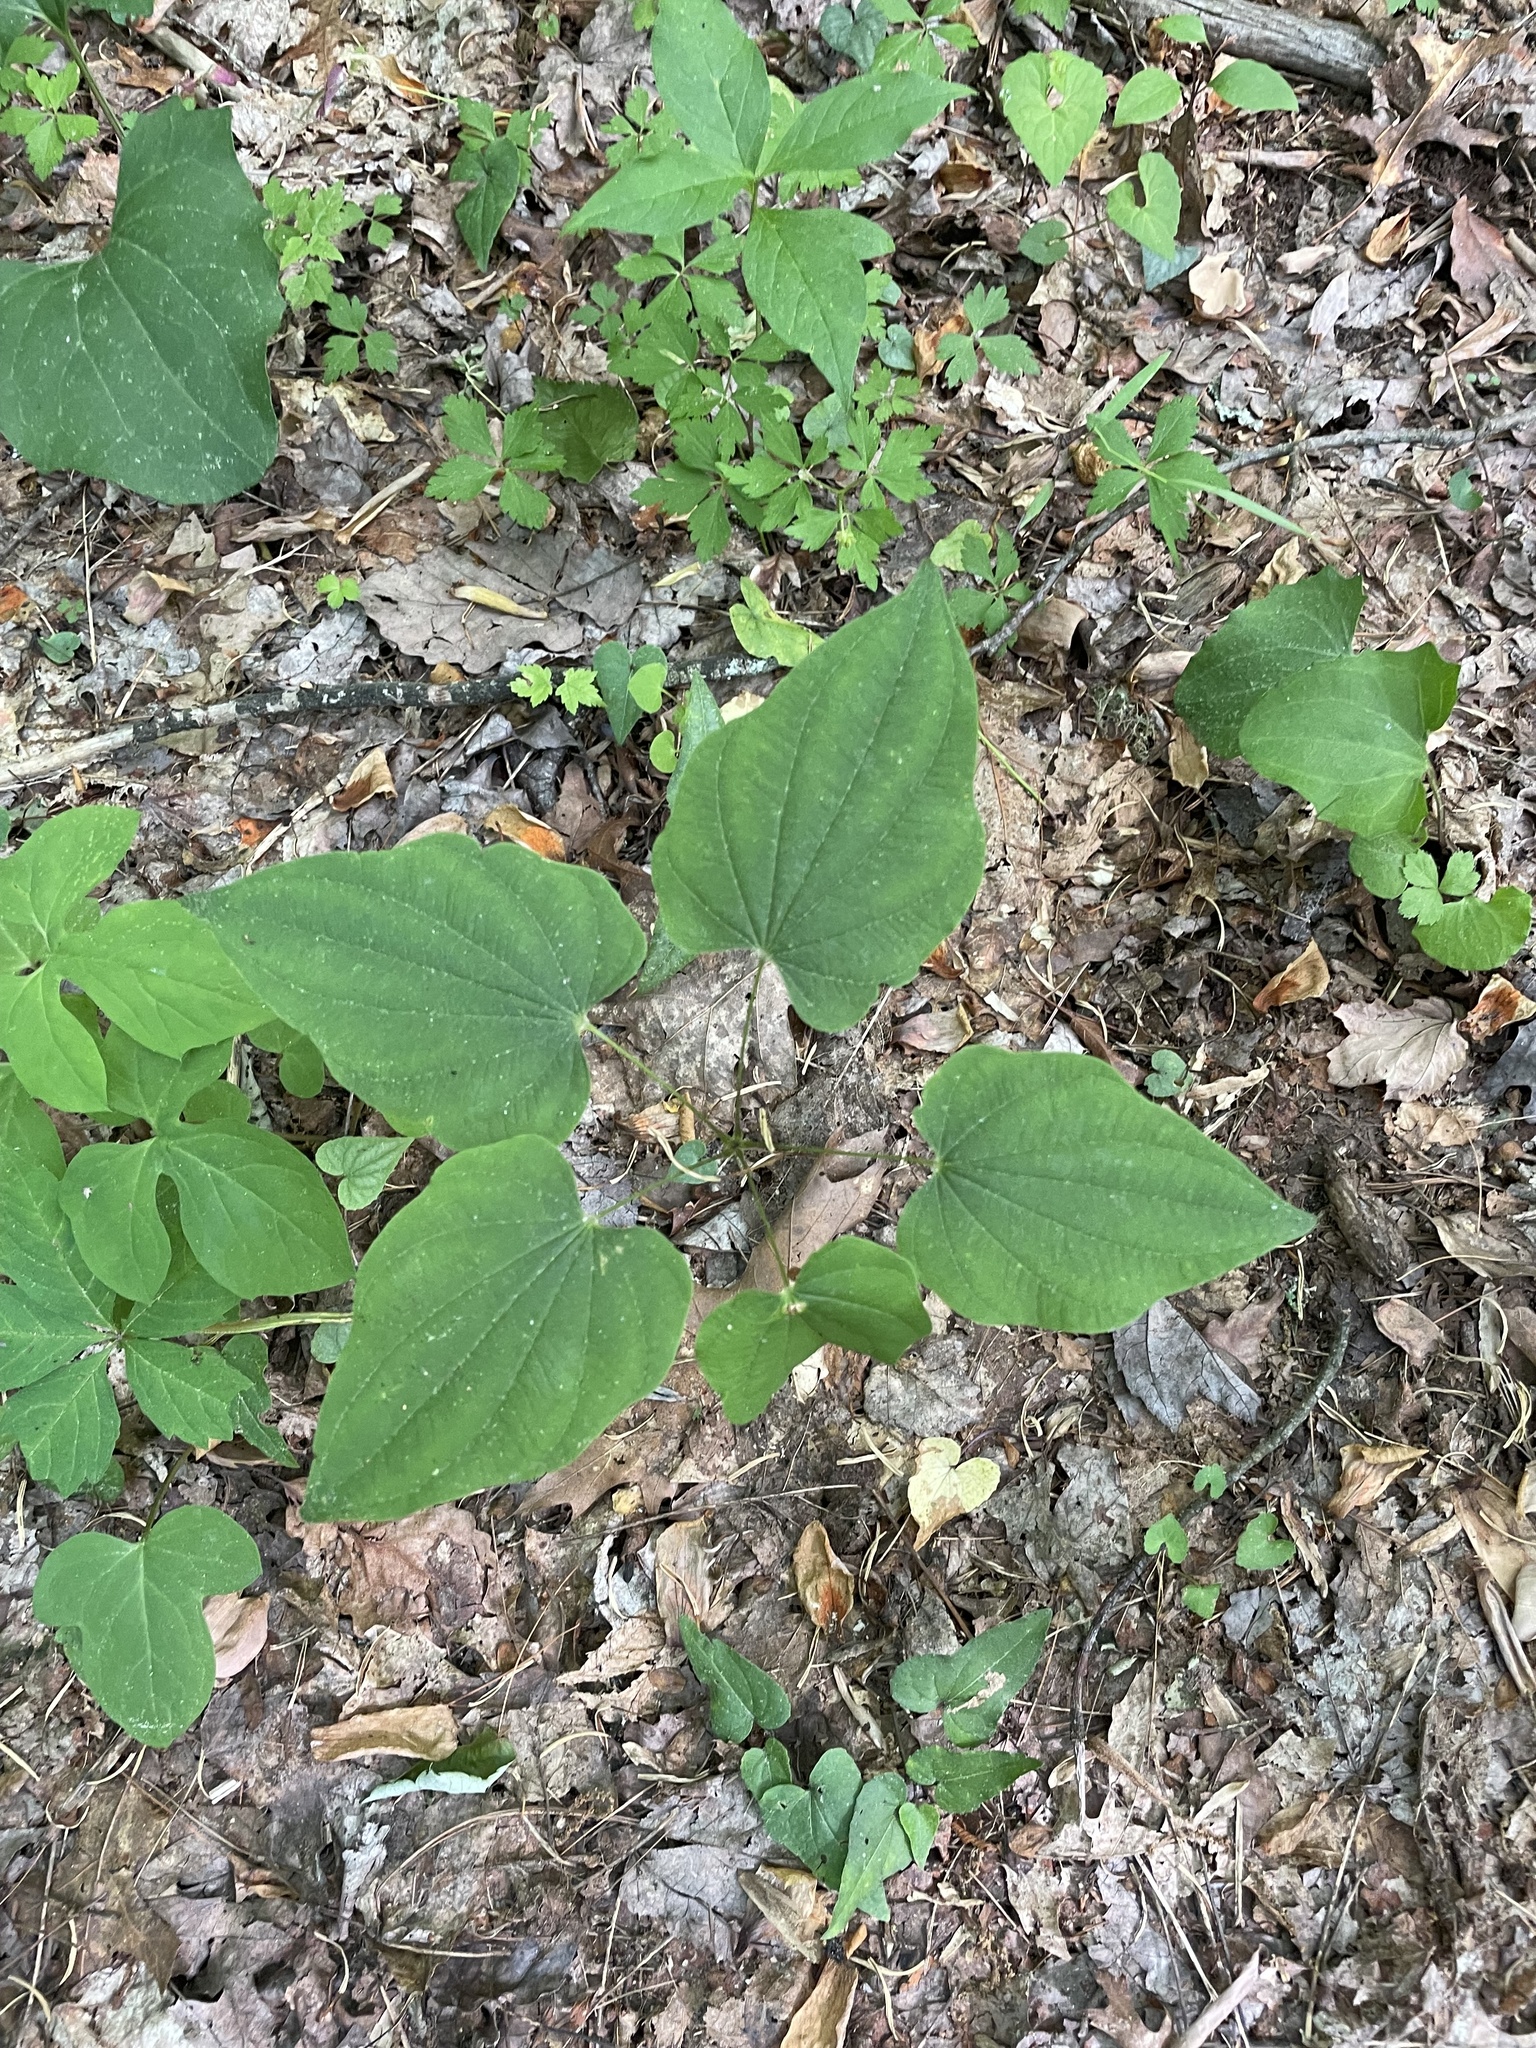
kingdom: Plantae
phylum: Tracheophyta
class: Liliopsida
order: Dioscoreales
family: Dioscoreaceae
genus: Dioscorea
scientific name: Dioscorea villosa
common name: Wild yam
